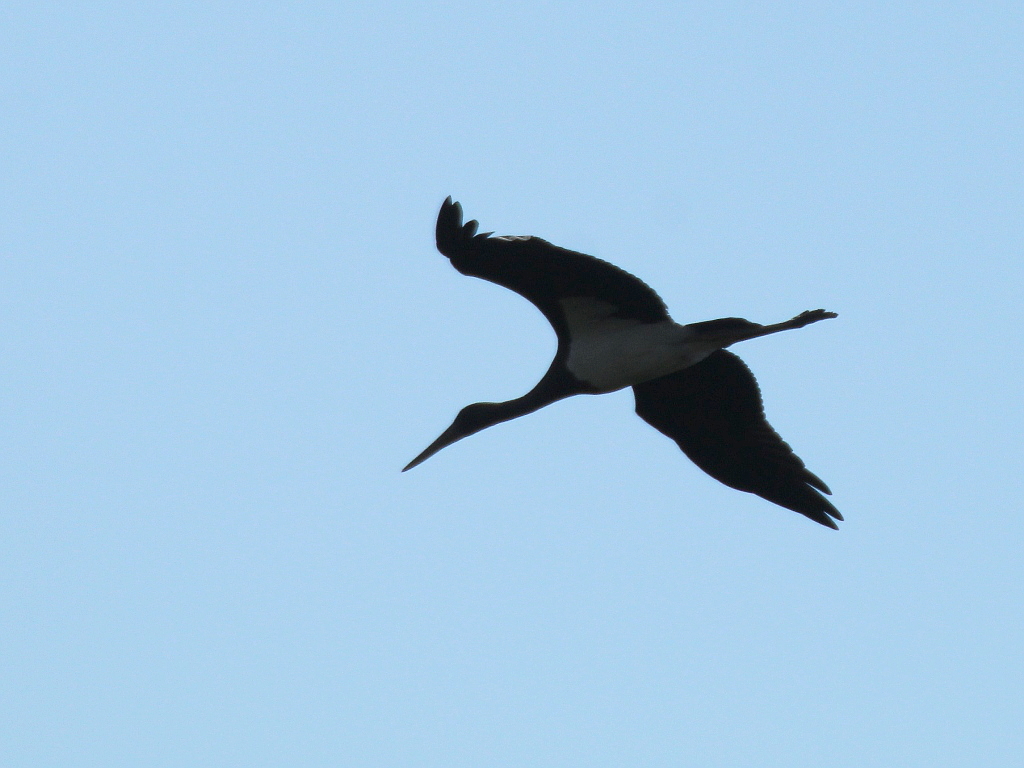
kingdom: Animalia
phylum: Chordata
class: Aves
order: Ciconiiformes
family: Ciconiidae
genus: Ciconia
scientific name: Ciconia nigra
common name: Black stork
